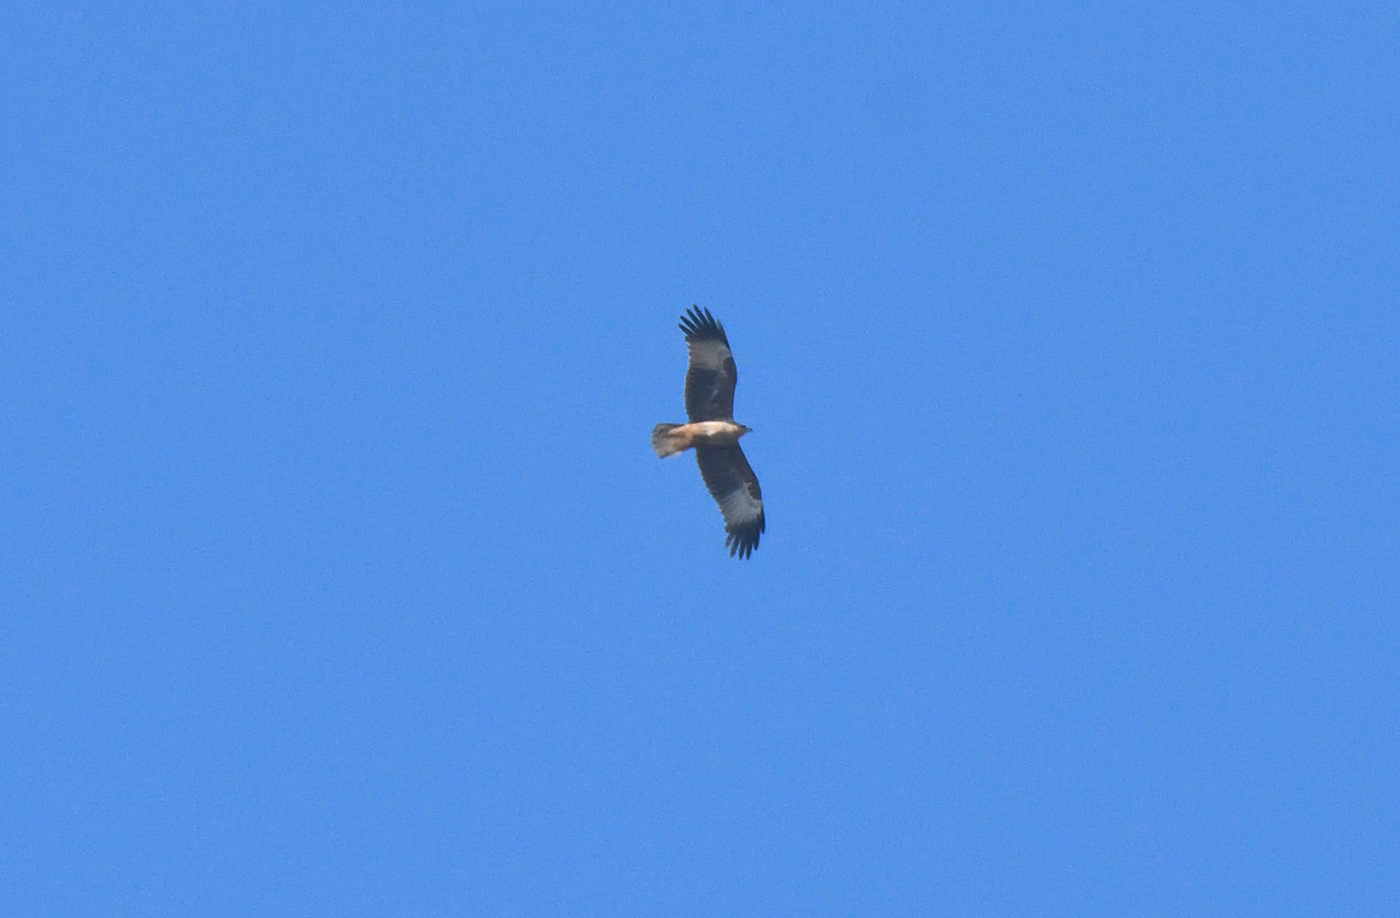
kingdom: Animalia
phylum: Chordata
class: Aves
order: Accipitriformes
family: Accipitridae
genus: Haliastur
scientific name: Haliastur indus
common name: Brahminy kite
